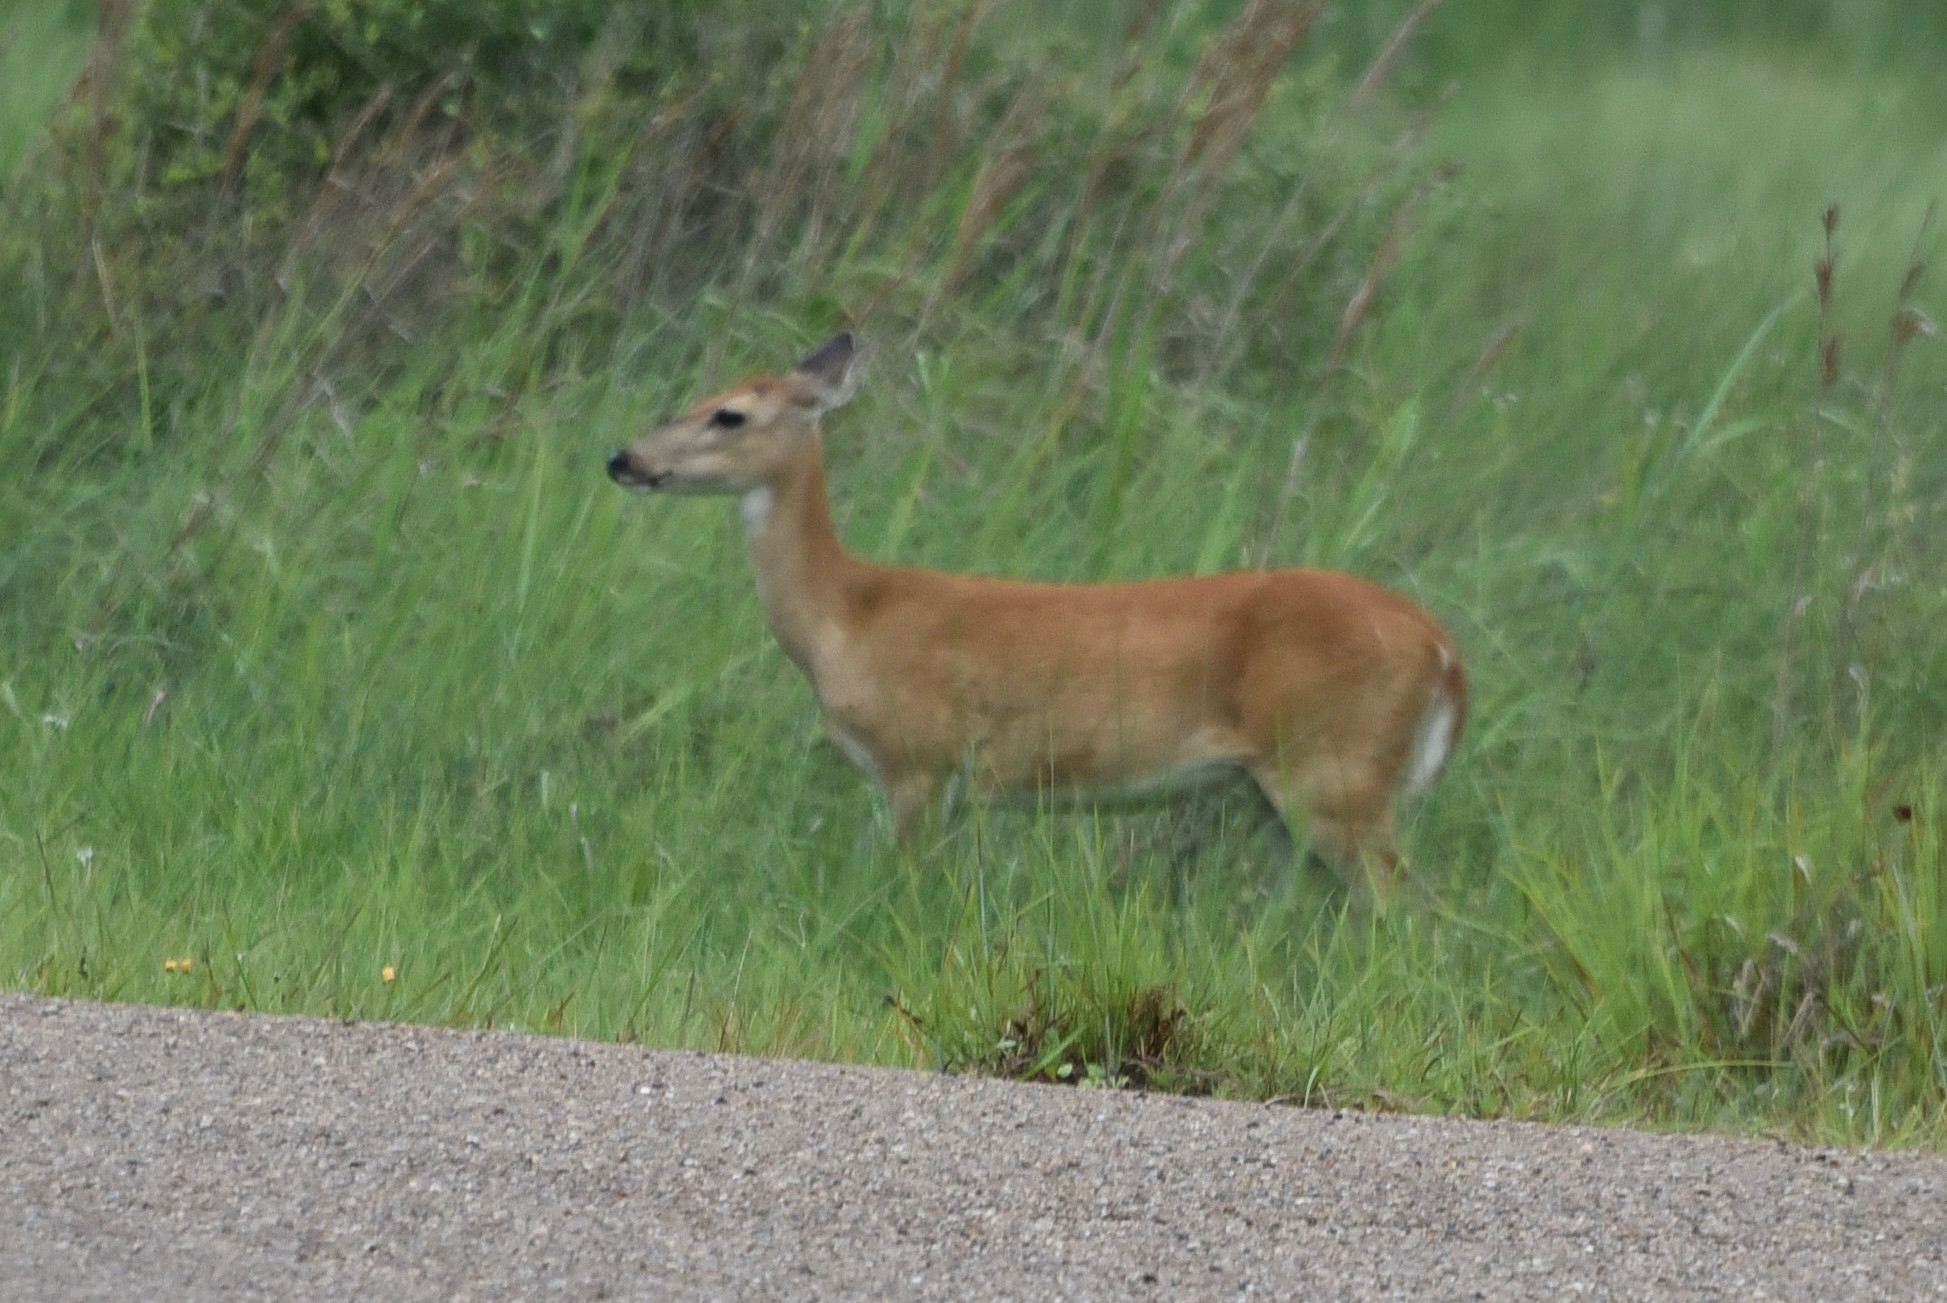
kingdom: Animalia
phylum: Chordata
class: Mammalia
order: Artiodactyla
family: Cervidae
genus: Odocoileus
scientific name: Odocoileus virginianus
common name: White-tailed deer
